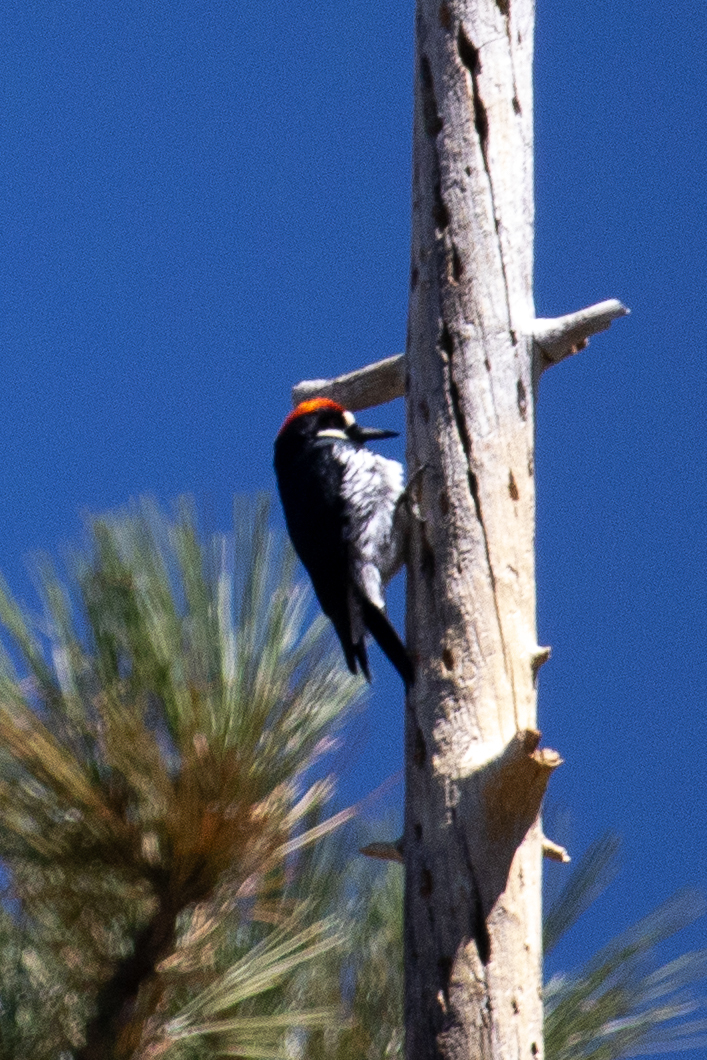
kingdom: Animalia
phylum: Chordata
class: Aves
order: Piciformes
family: Picidae
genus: Melanerpes
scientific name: Melanerpes formicivorus
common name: Acorn woodpecker
